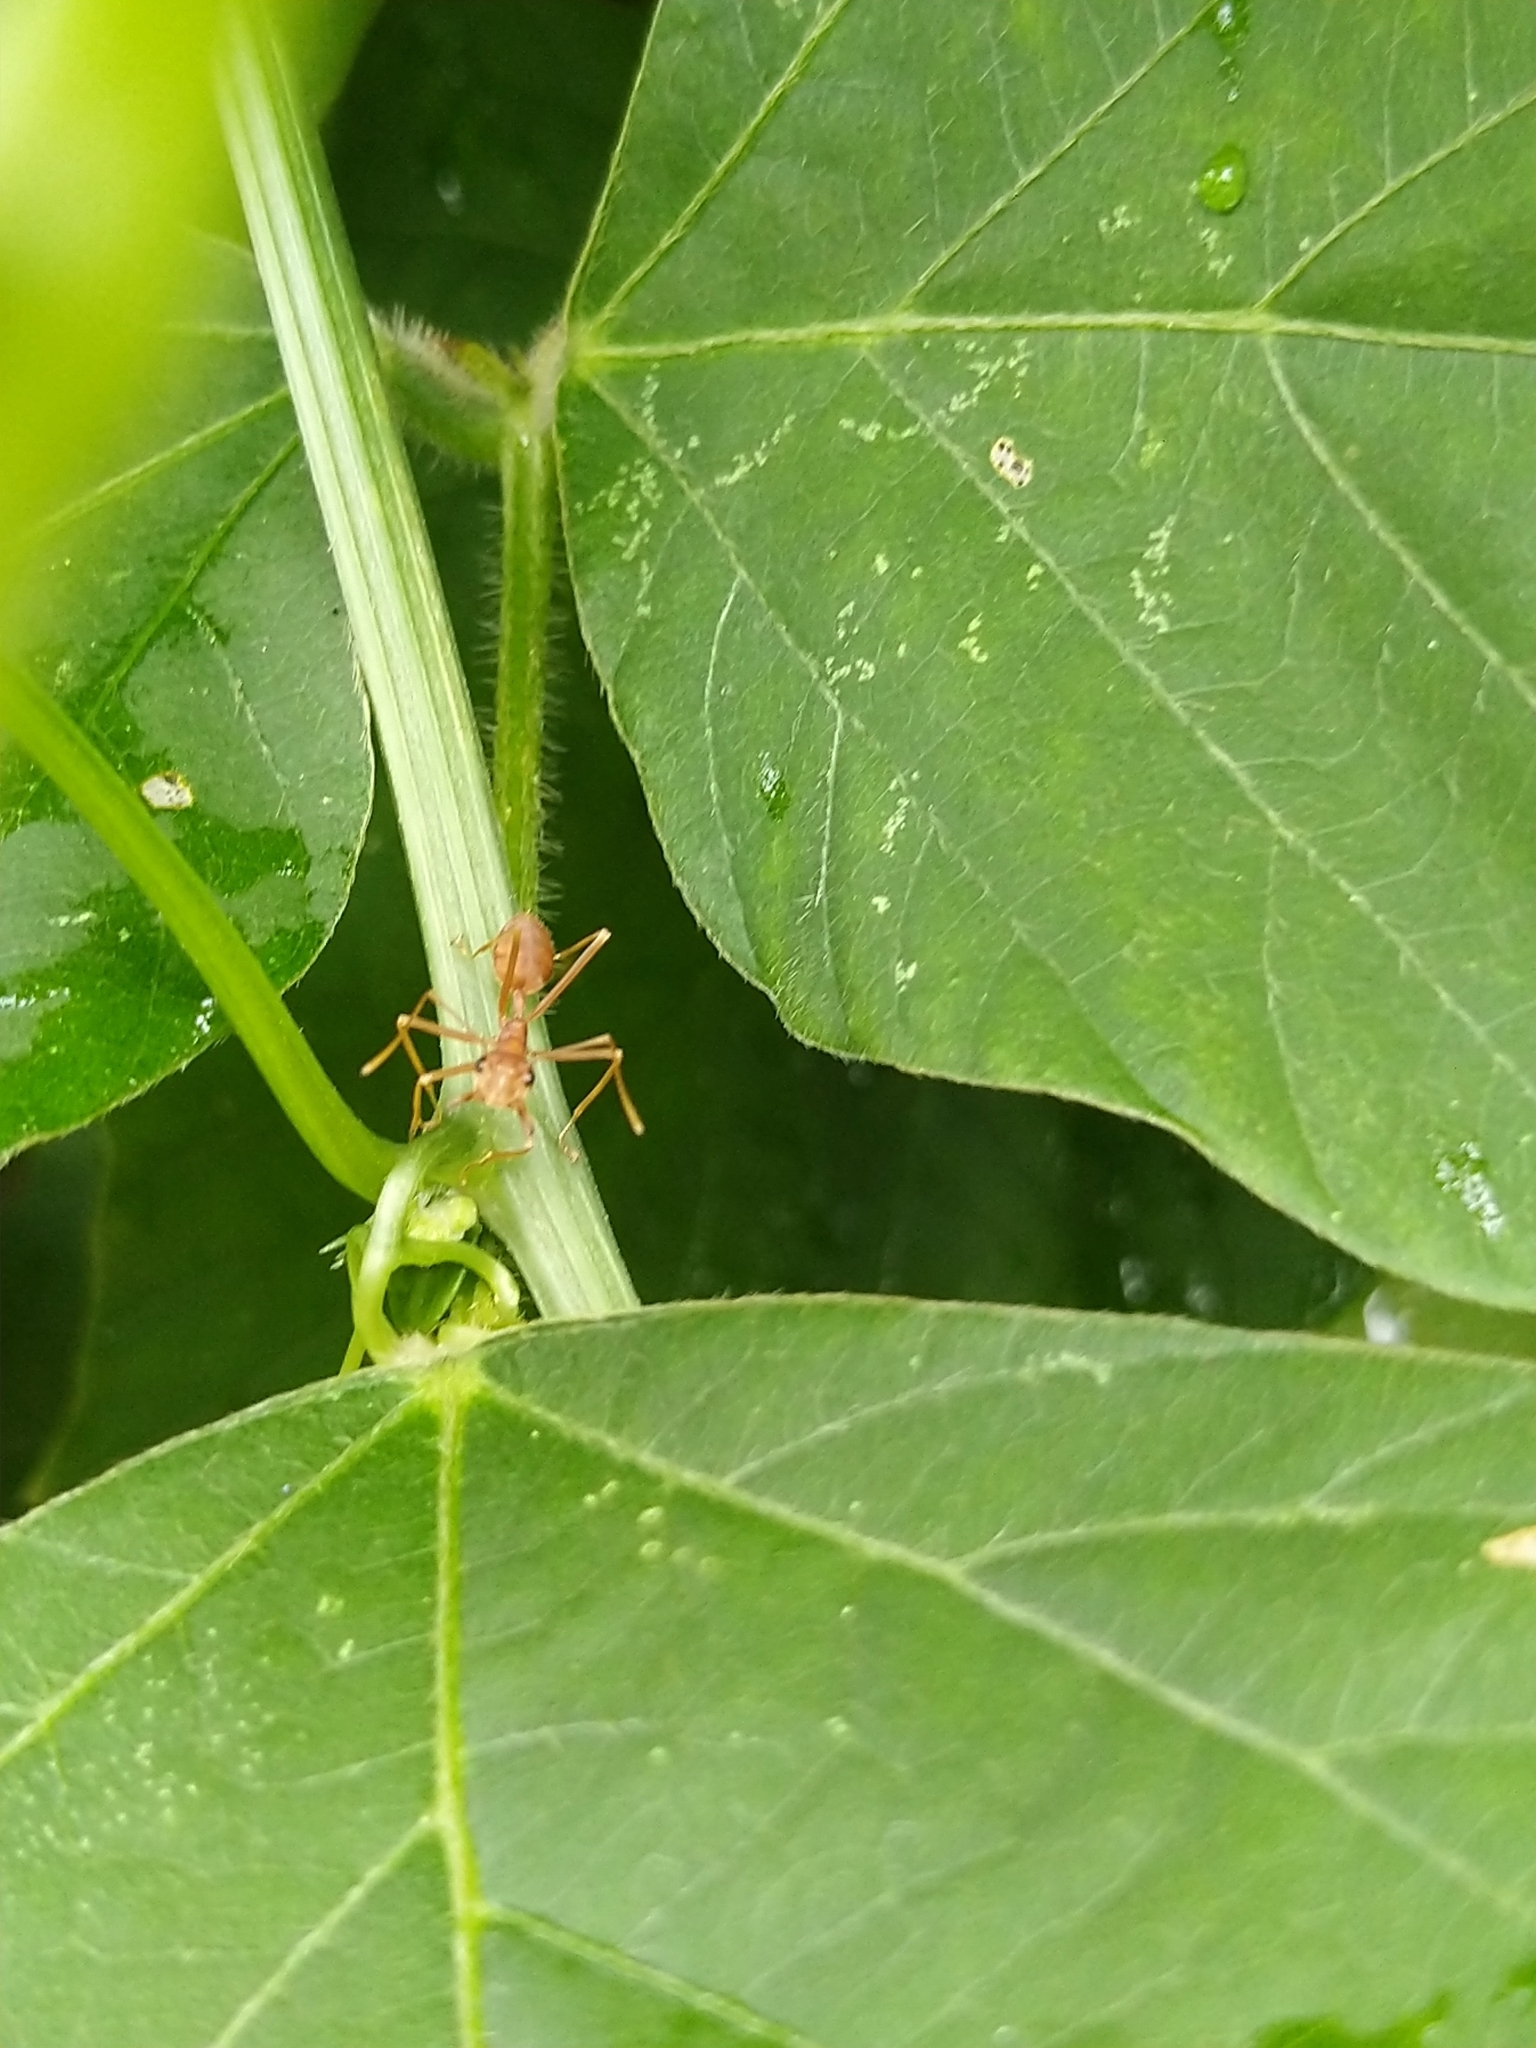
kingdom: Animalia
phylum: Arthropoda
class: Insecta
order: Hymenoptera
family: Formicidae
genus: Oecophylla
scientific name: Oecophylla smaragdina
